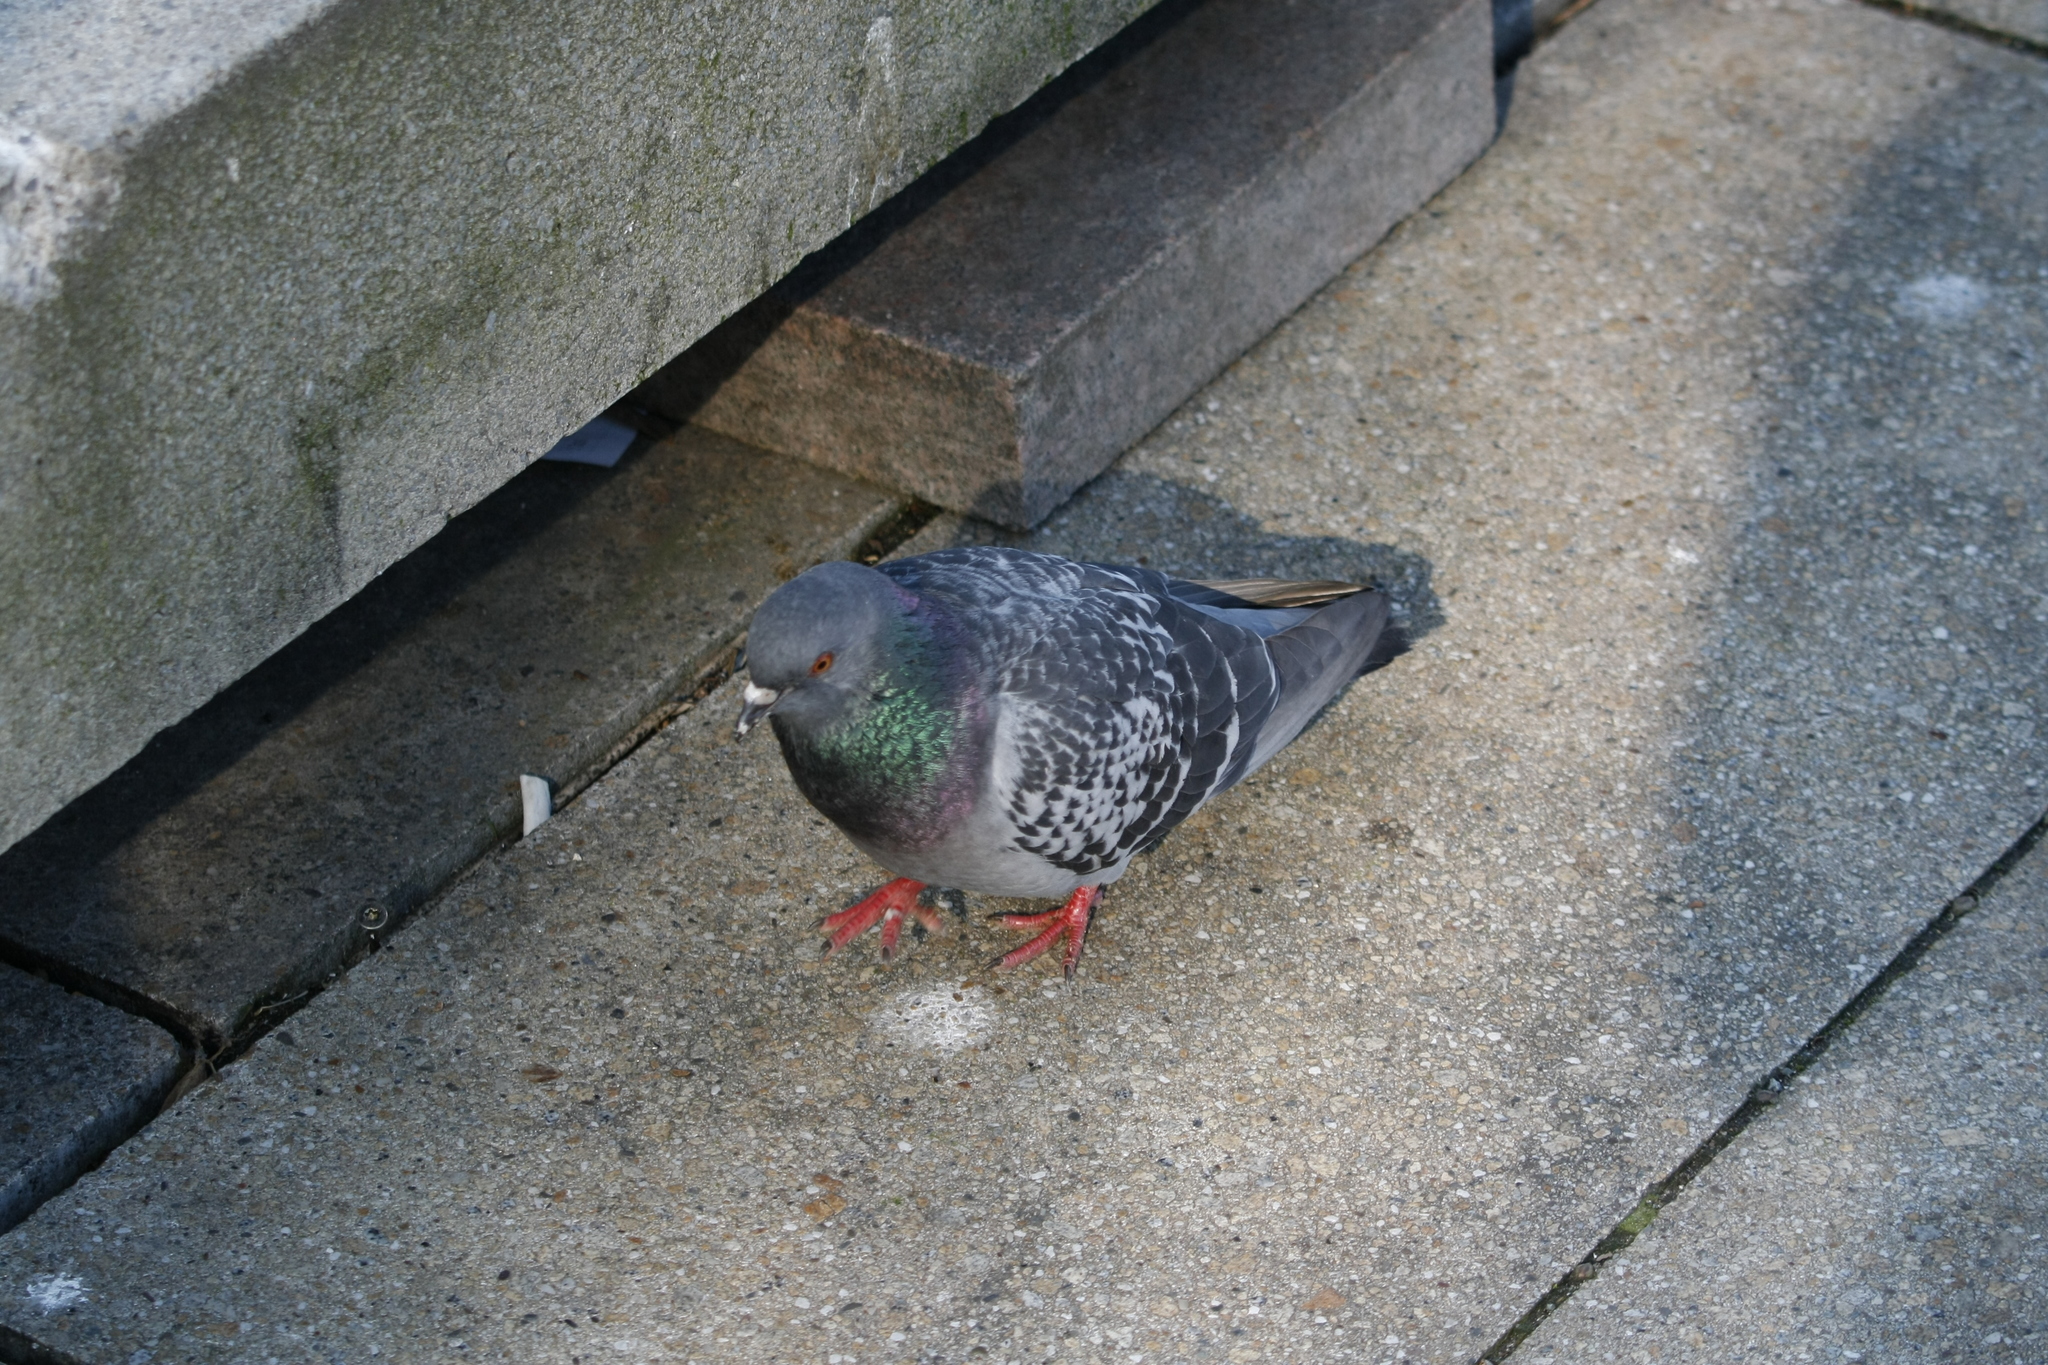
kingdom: Animalia
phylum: Chordata
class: Aves
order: Columbiformes
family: Columbidae
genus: Columba
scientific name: Columba livia
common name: Rock pigeon
